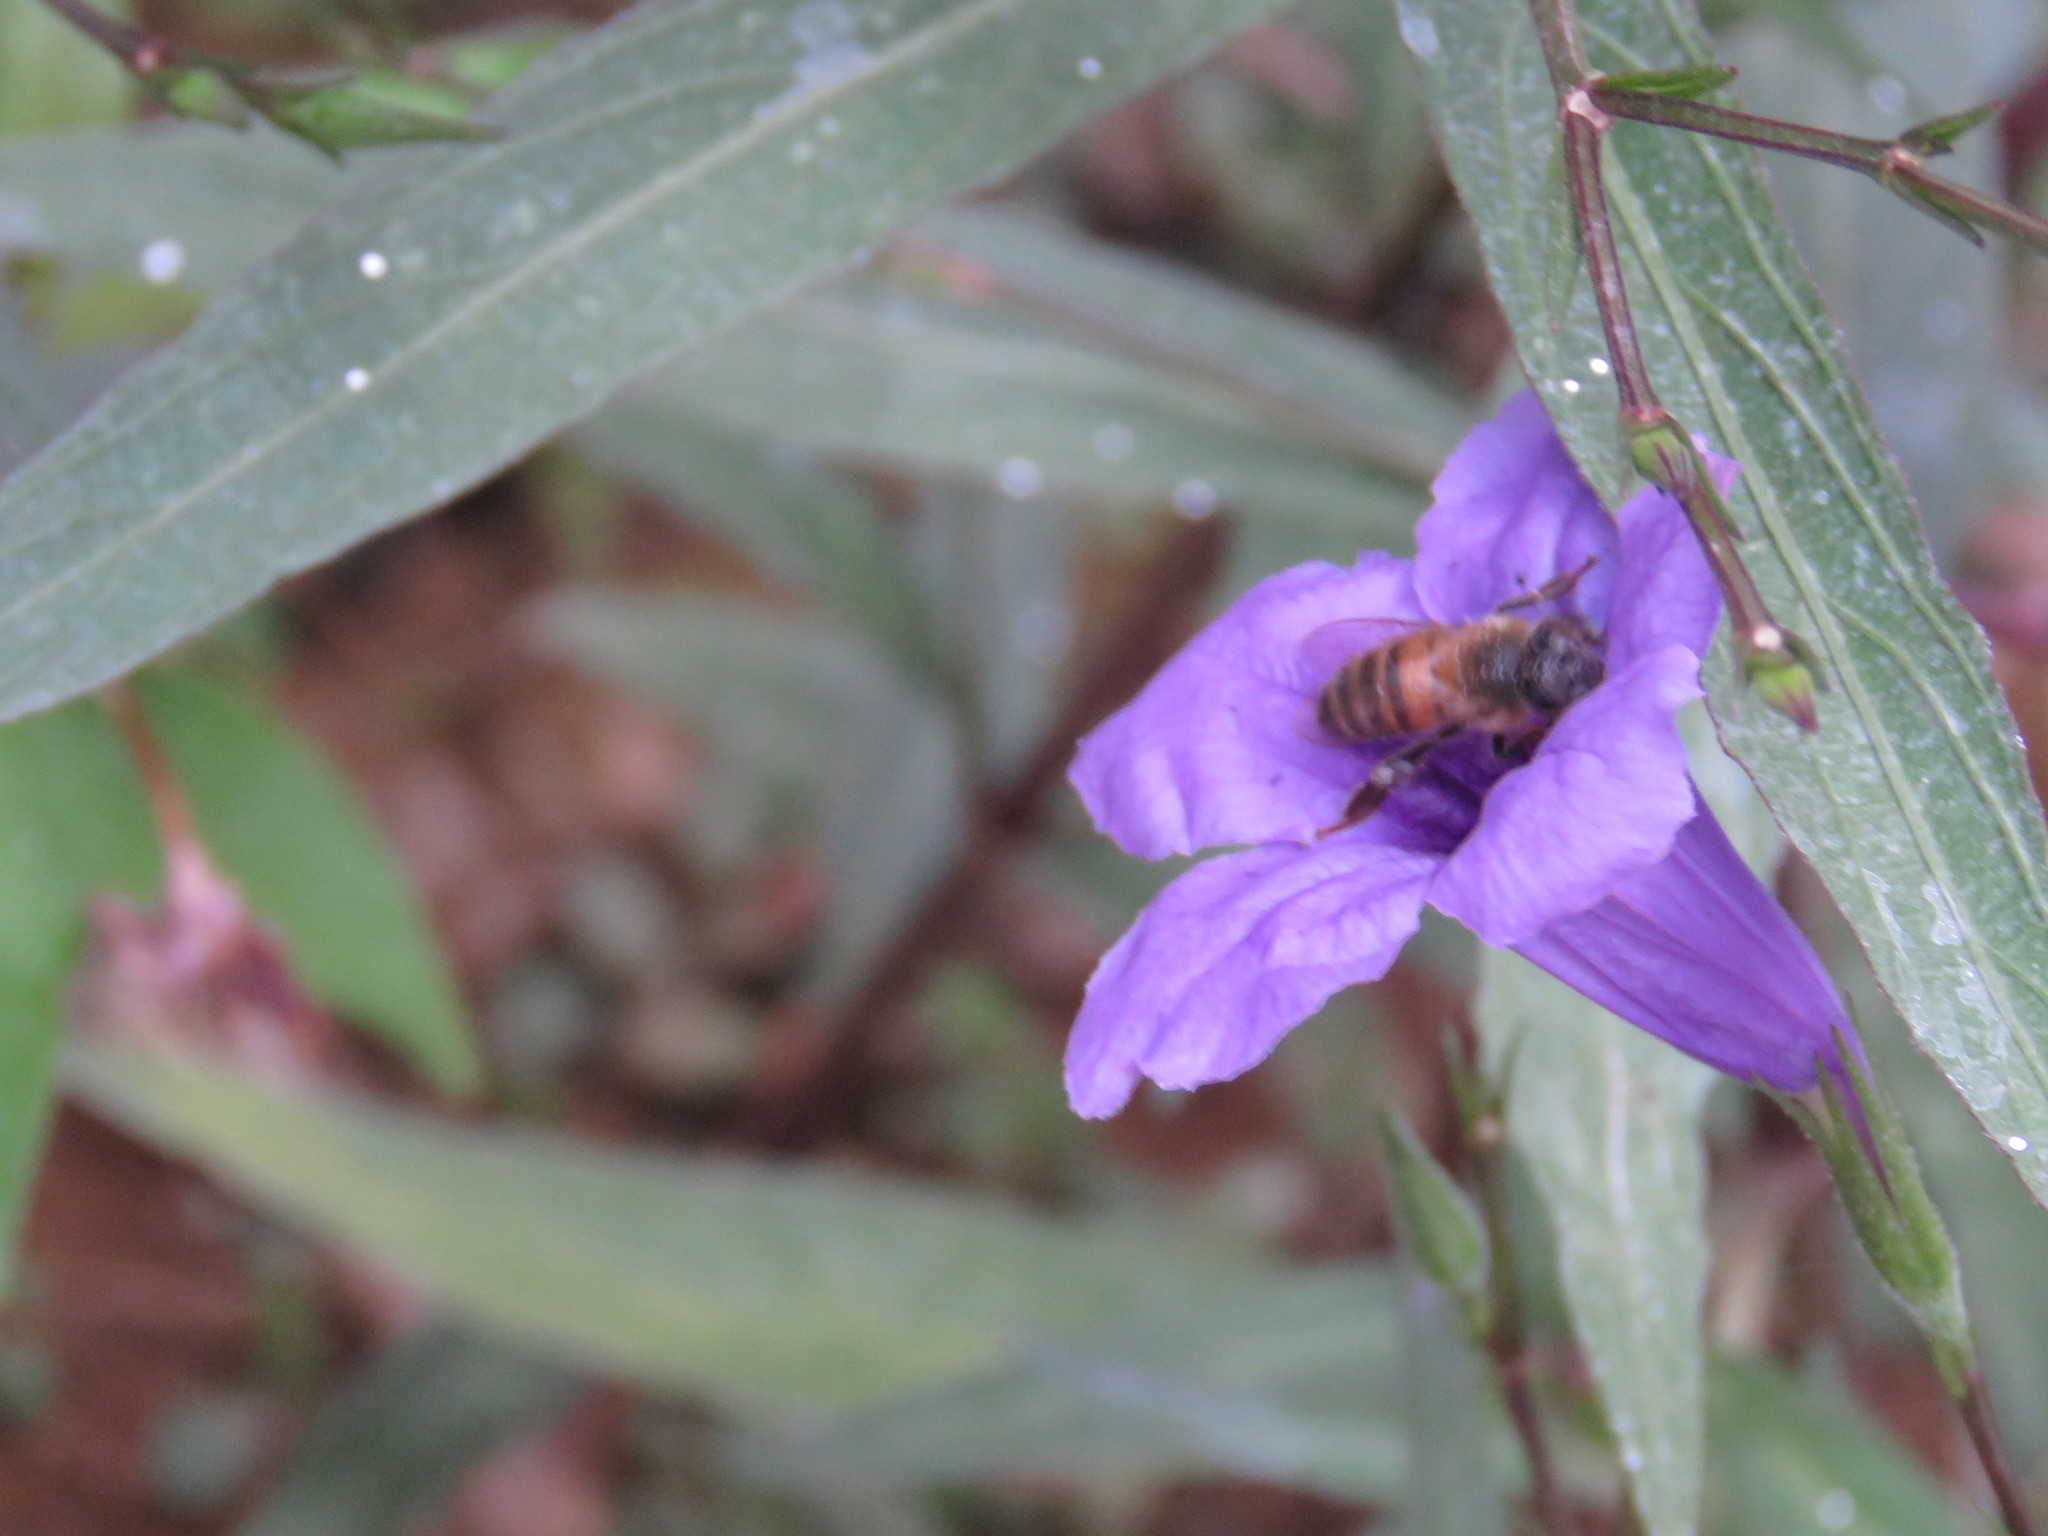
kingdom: Animalia
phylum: Arthropoda
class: Insecta
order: Hymenoptera
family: Apidae
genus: Apis
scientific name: Apis mellifera
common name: Honey bee
